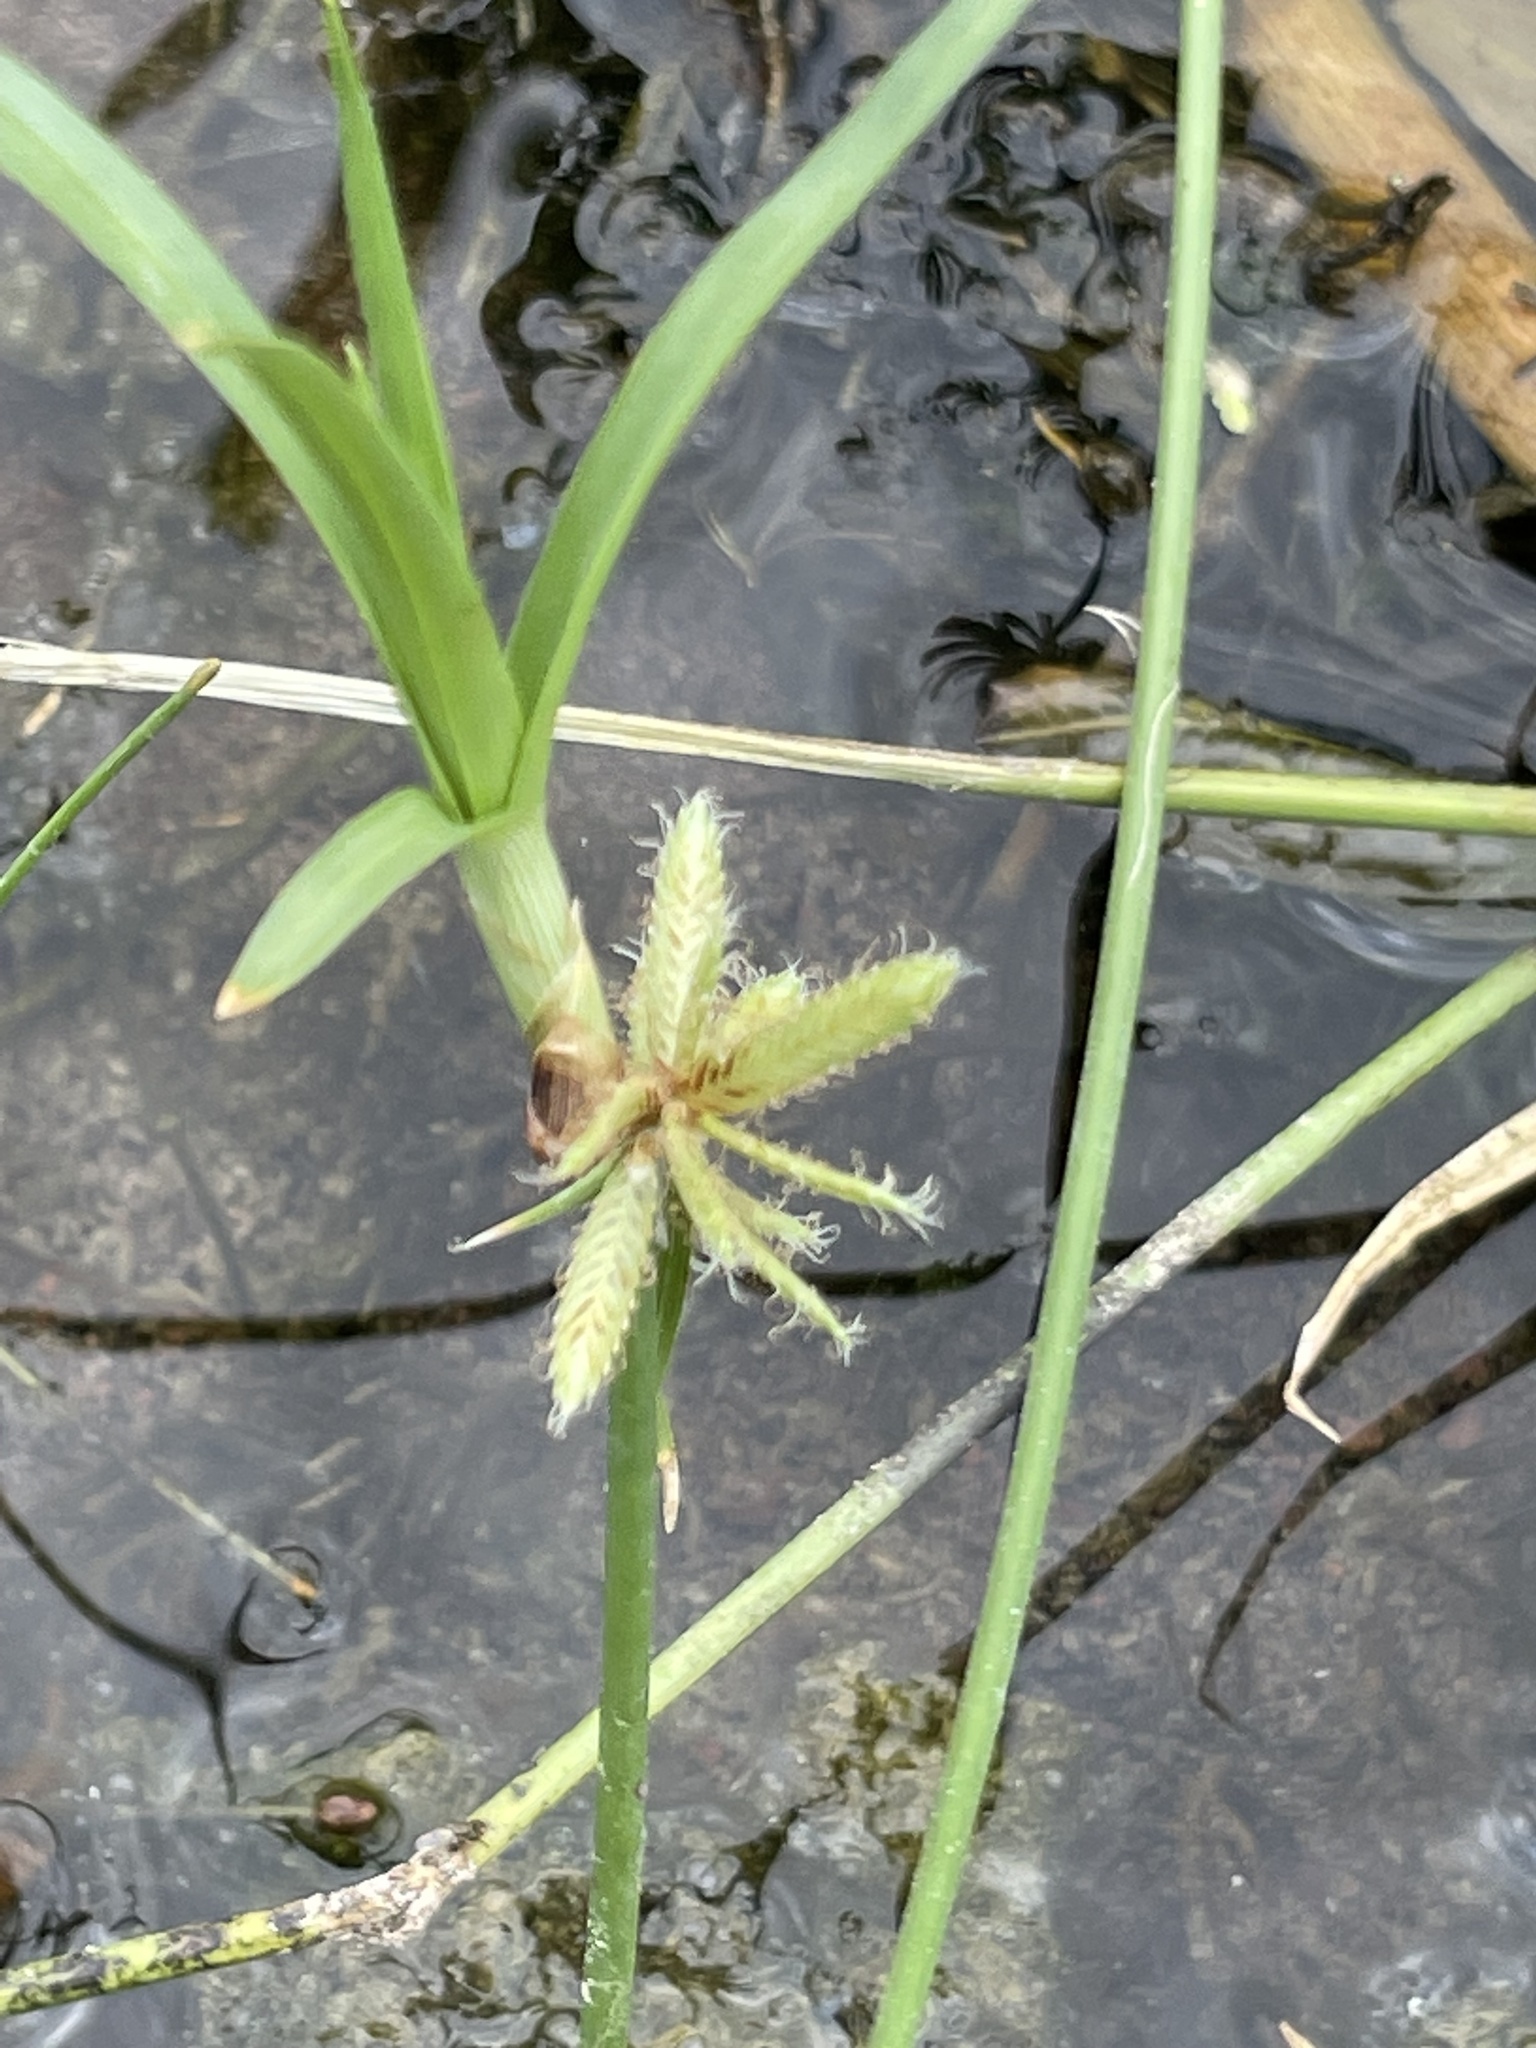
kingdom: Plantae
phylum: Tracheophyta
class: Liliopsida
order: Poales
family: Cyperaceae
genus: Cyperus
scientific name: Cyperus dioicus
